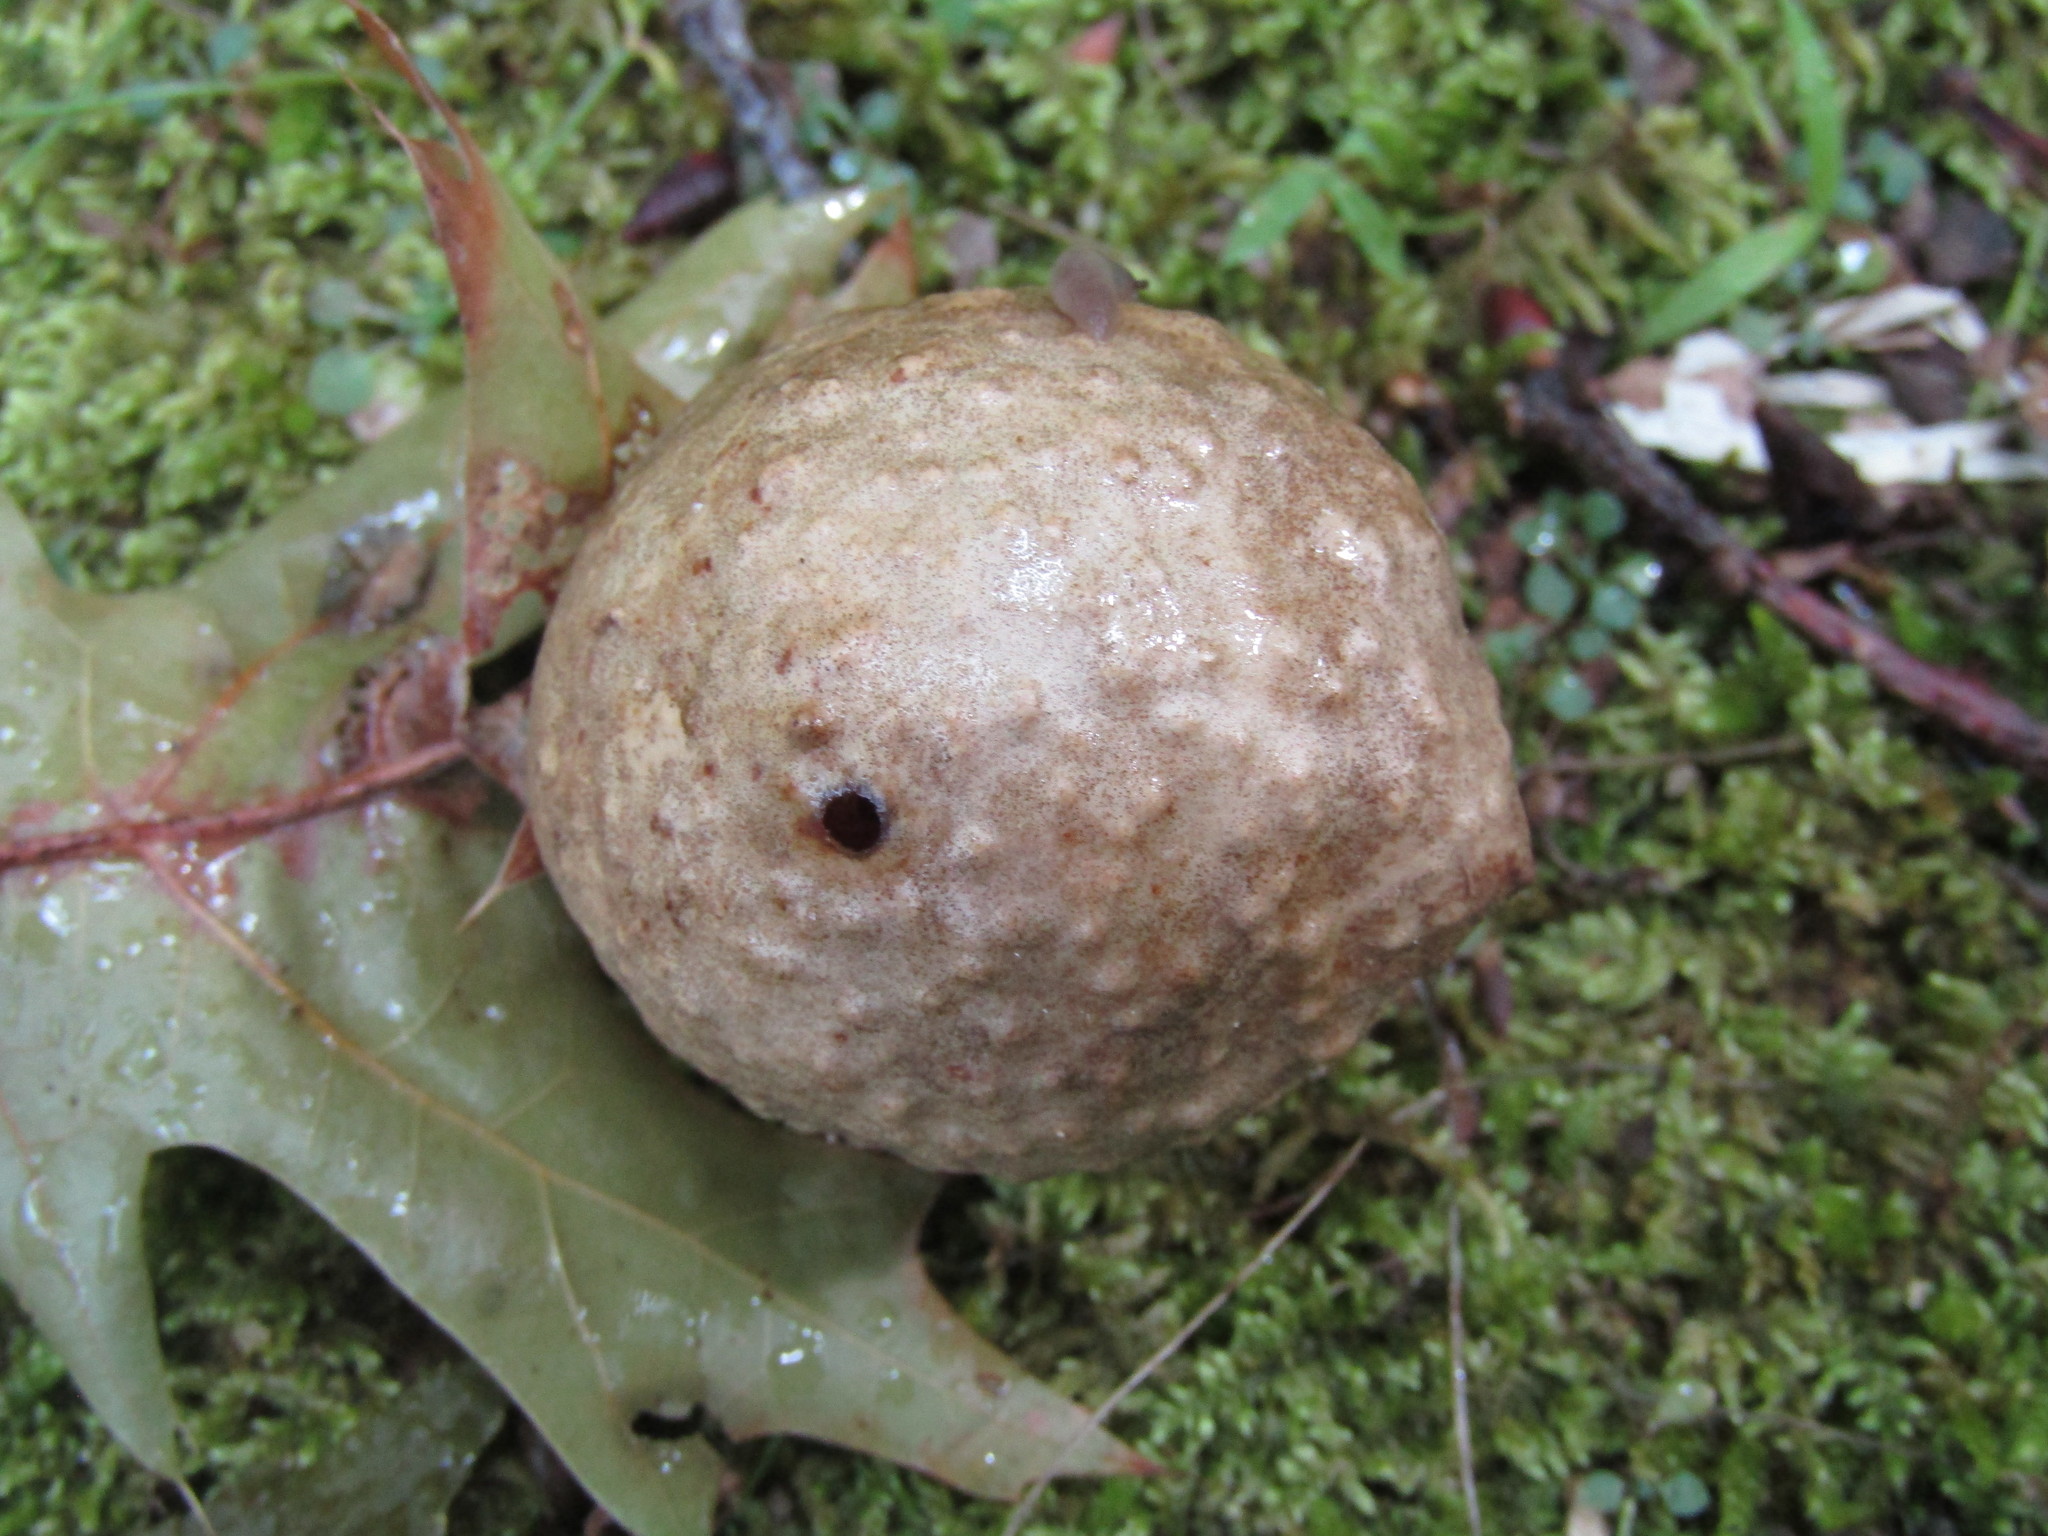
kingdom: Animalia
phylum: Arthropoda
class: Insecta
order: Hymenoptera
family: Cynipidae
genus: Amphibolips
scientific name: Amphibolips
